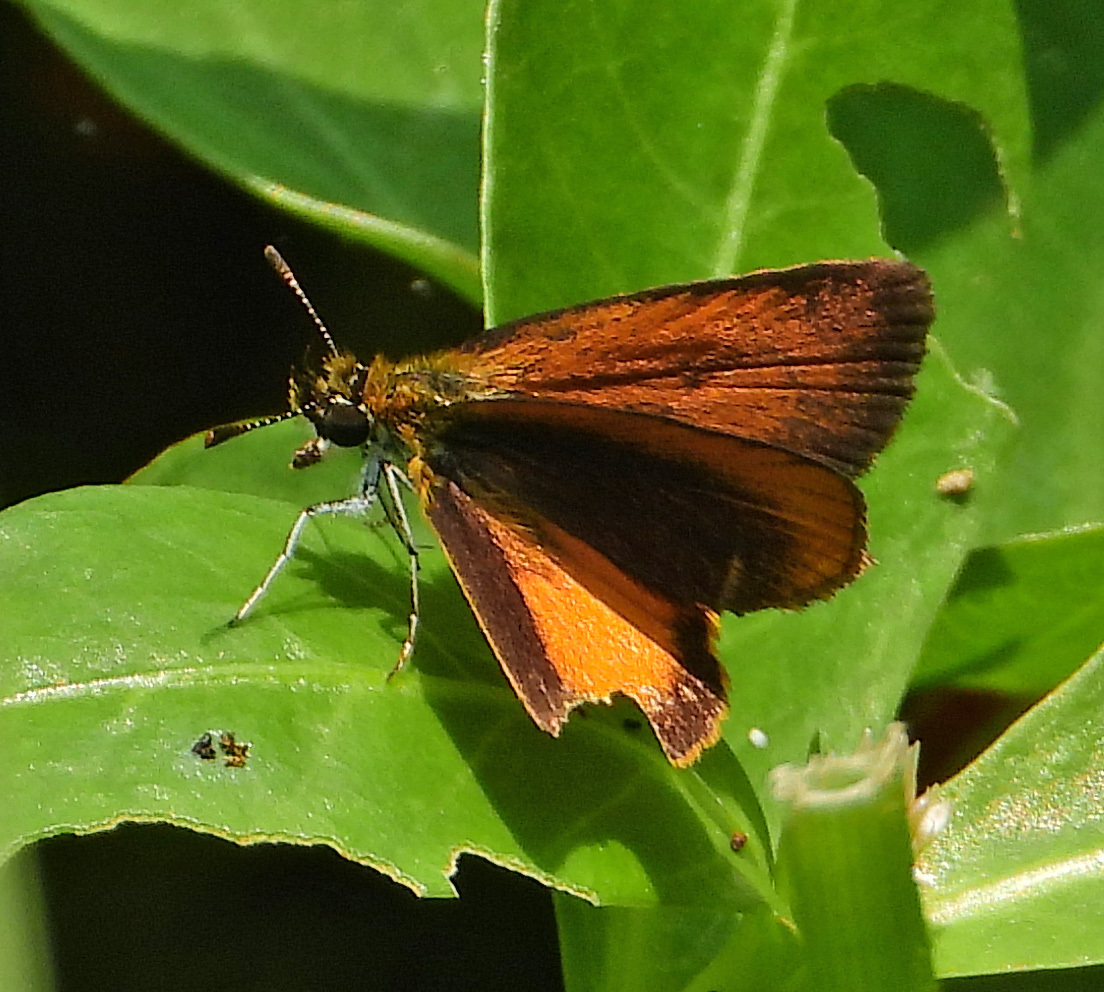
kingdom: Animalia
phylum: Arthropoda
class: Insecta
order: Lepidoptera
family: Hesperiidae
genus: Ancyloxypha
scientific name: Ancyloxypha numitor
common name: Least skipper
